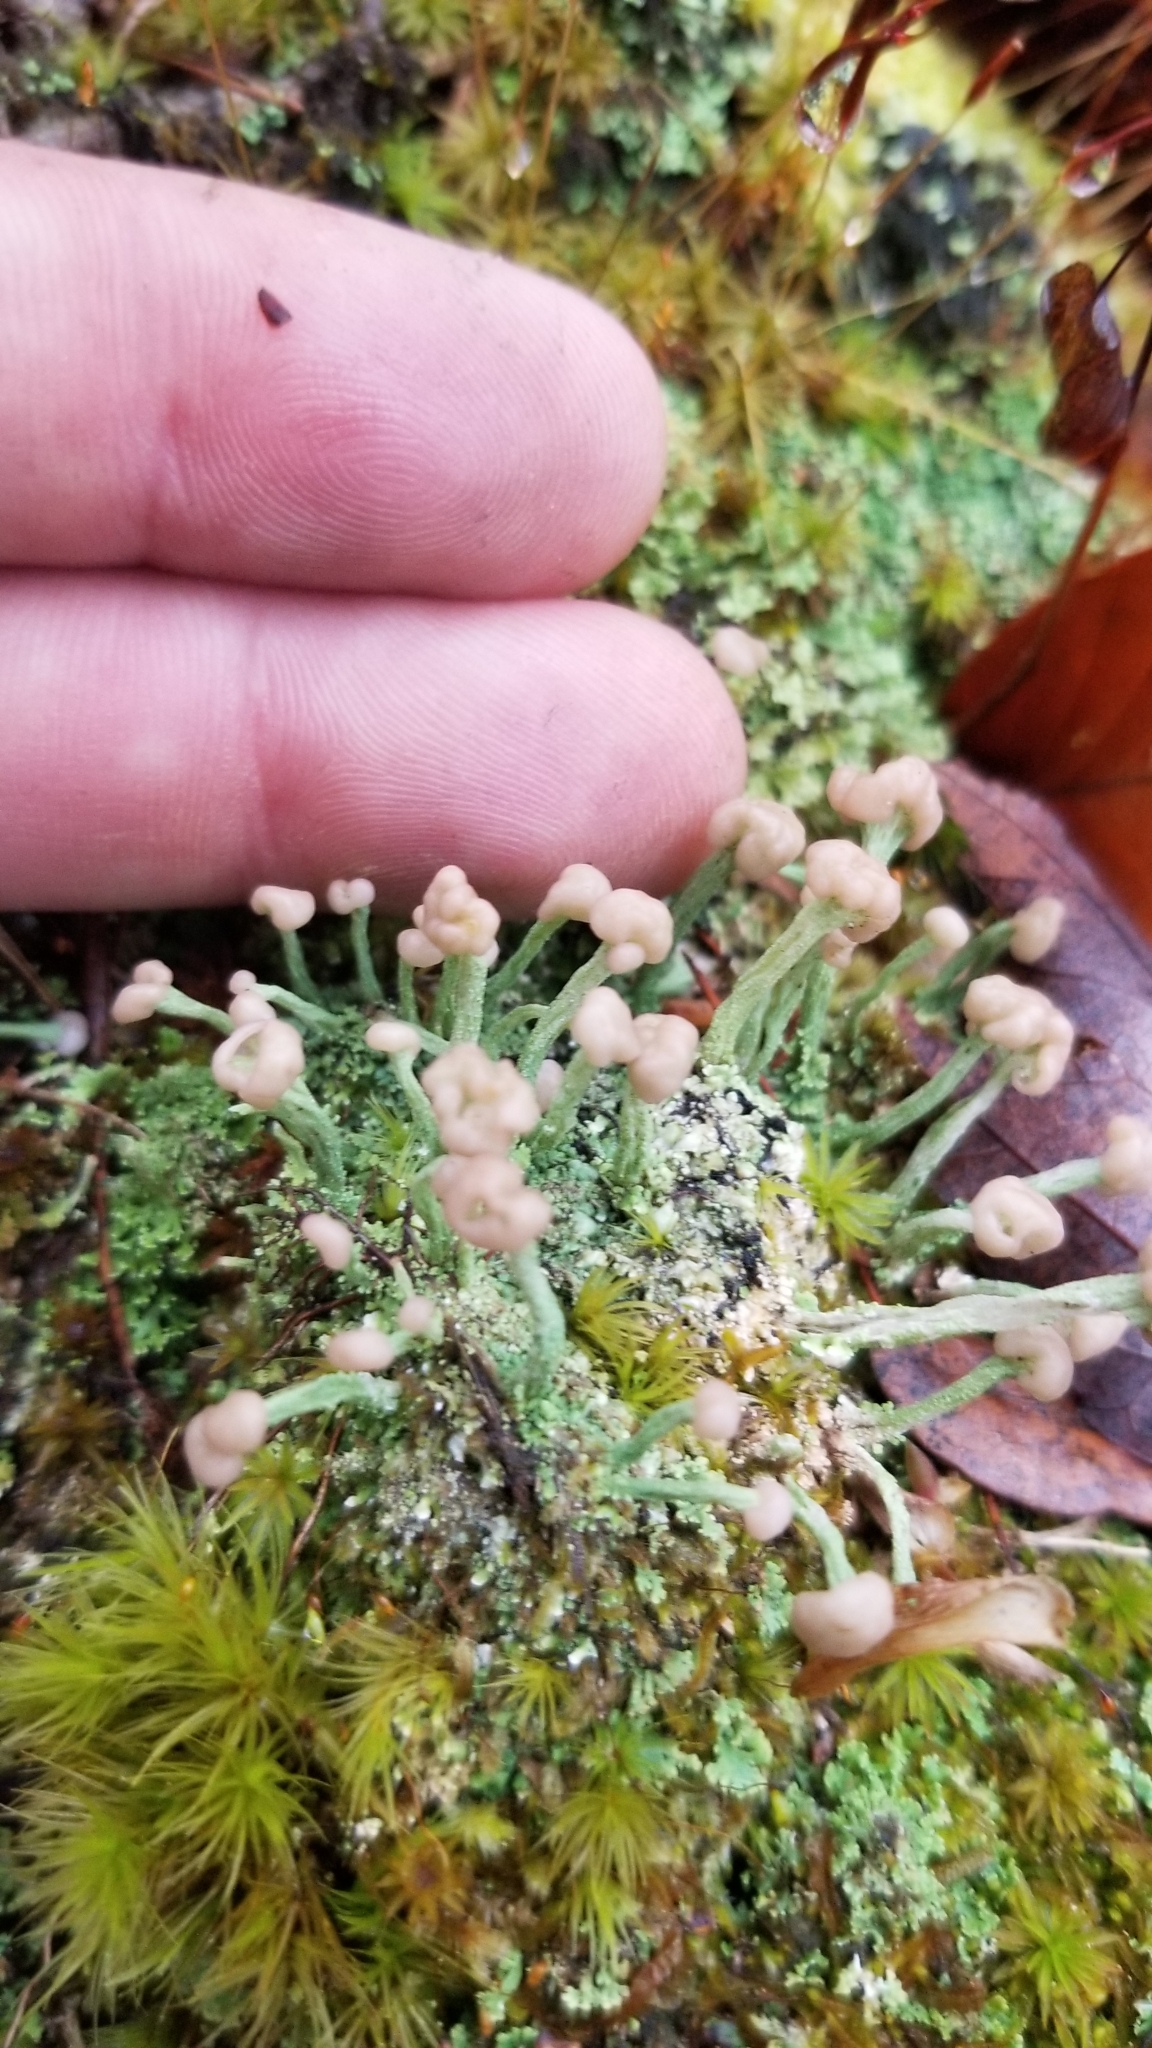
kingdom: Fungi
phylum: Ascomycota
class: Lecanoromycetes
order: Lecanorales
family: Cladoniaceae
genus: Cladonia
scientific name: Cladonia peziziformis
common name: Cup lichen
